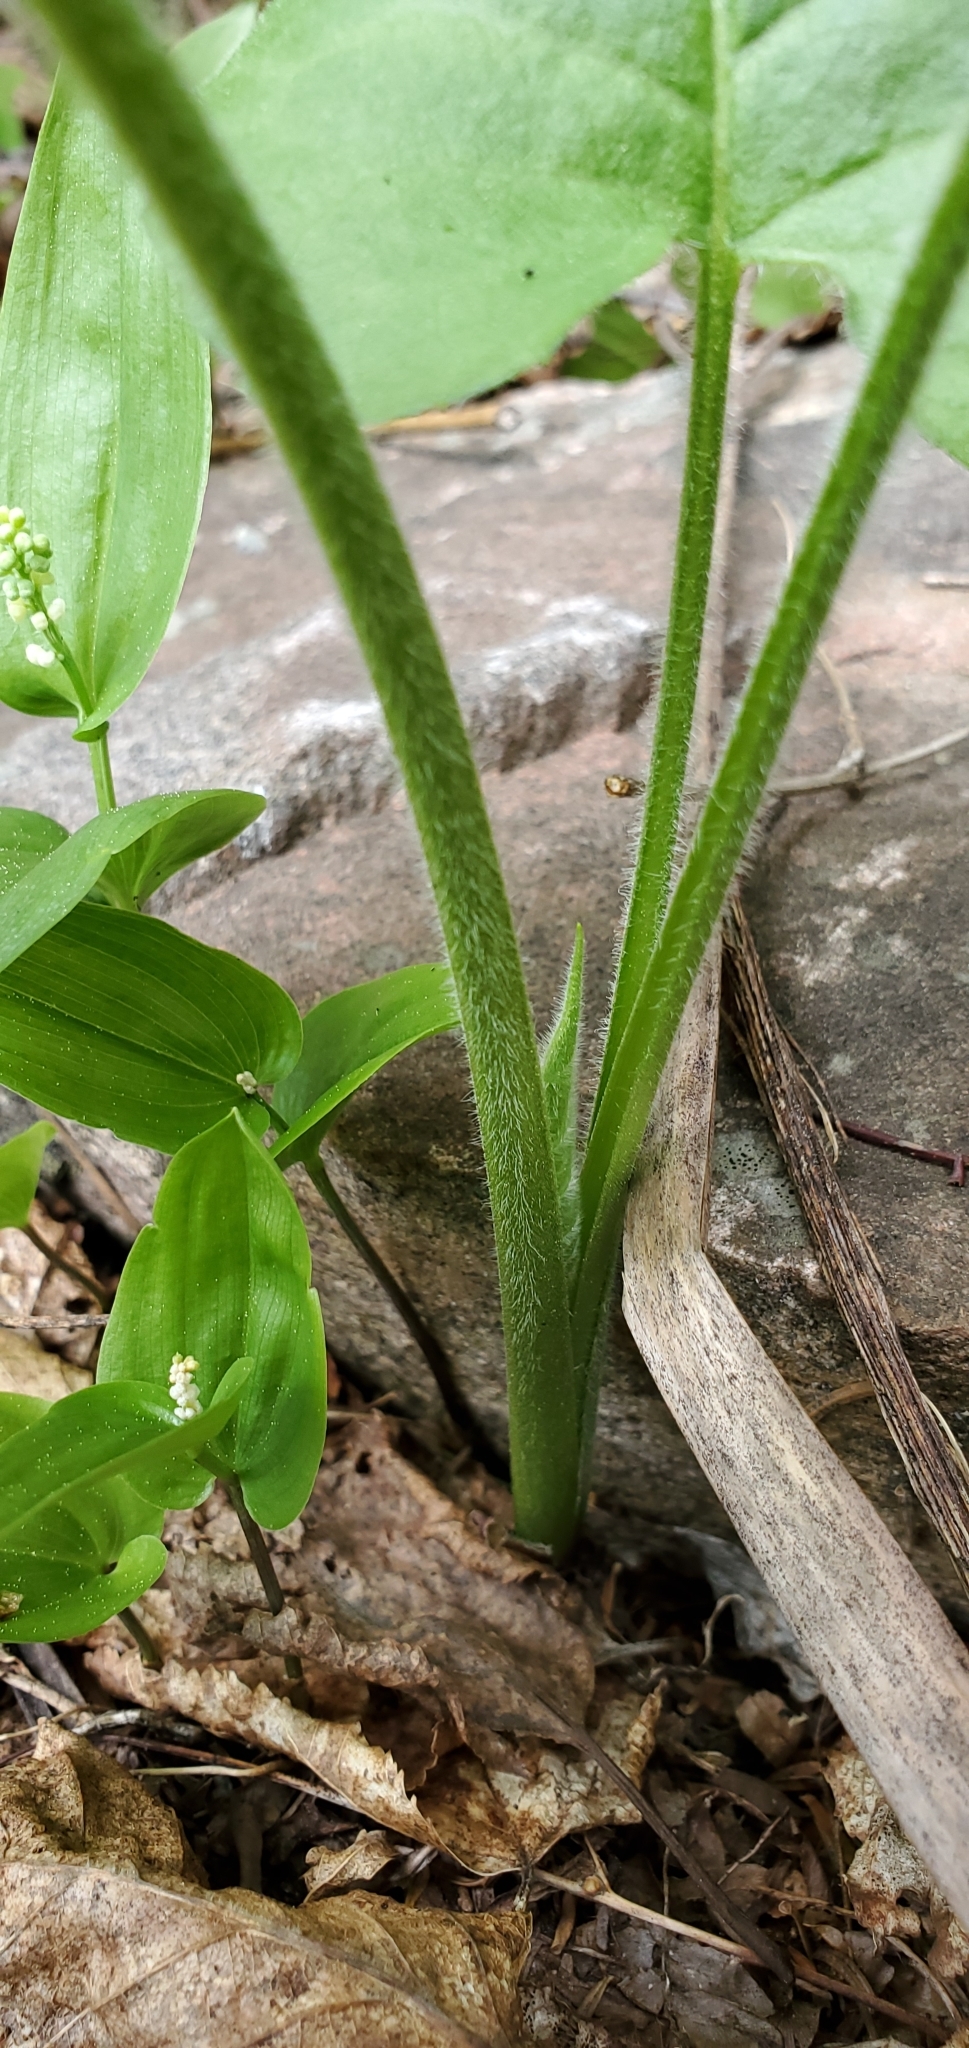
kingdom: Plantae
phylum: Tracheophyta
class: Magnoliopsida
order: Asterales
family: Asteraceae
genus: Eurybia
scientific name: Eurybia macrophylla
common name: Big-leaved aster
